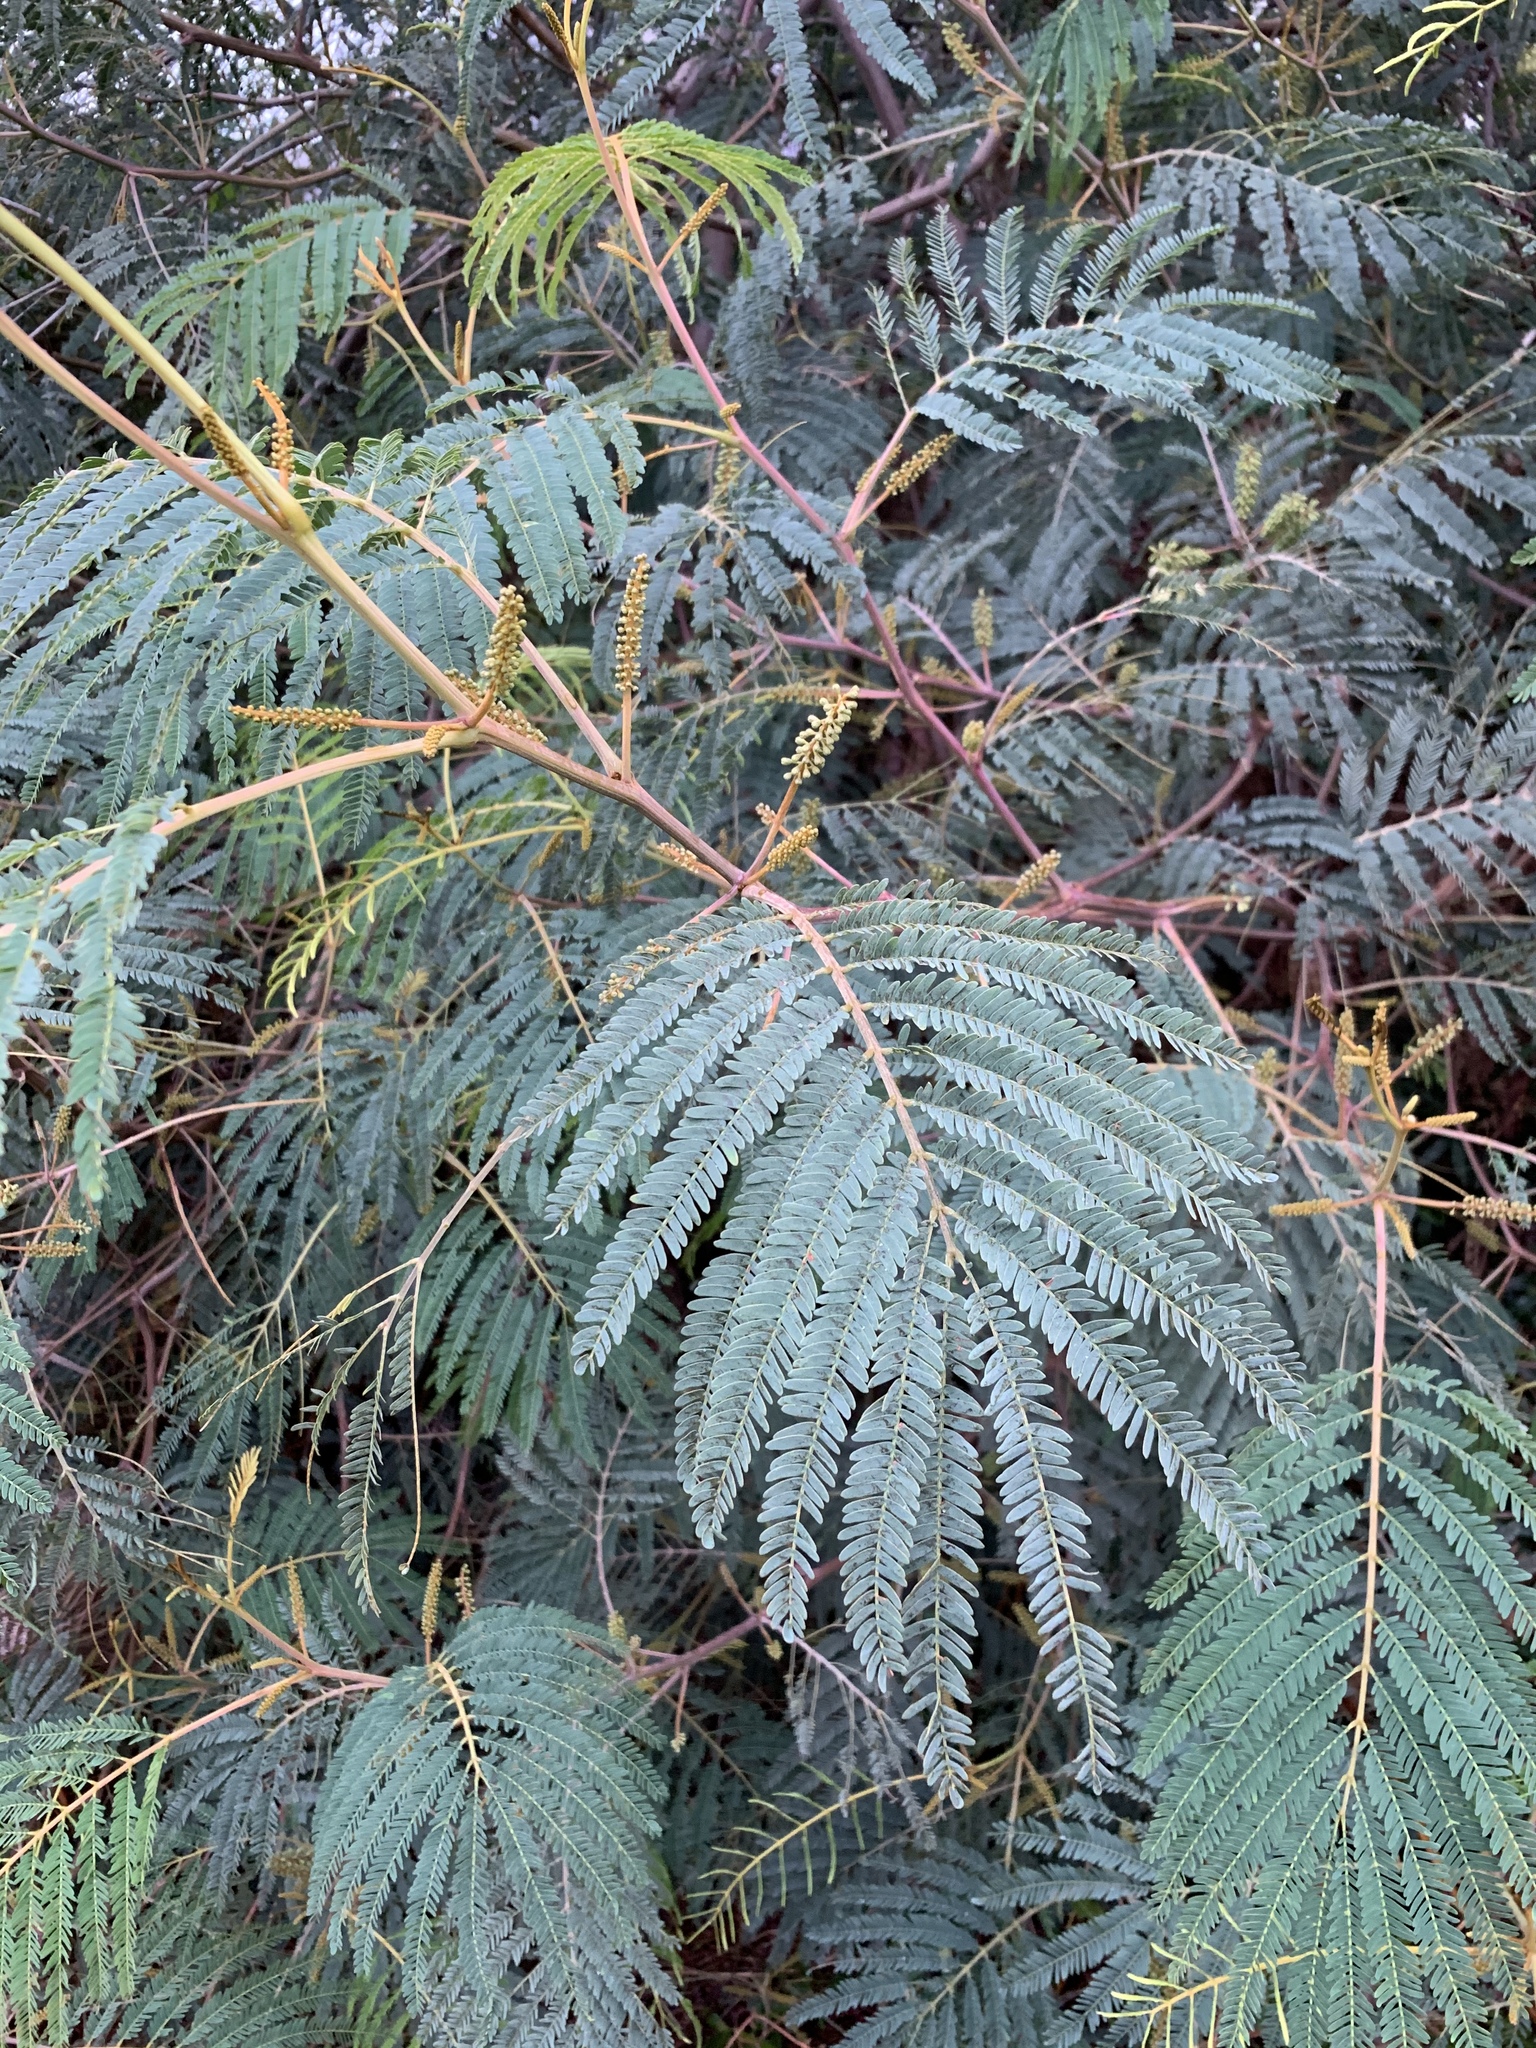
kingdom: Plantae
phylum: Tracheophyta
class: Magnoliopsida
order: Fabales
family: Fabaceae
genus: Paraserianthes
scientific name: Paraserianthes lophantha
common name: Plume albizia
